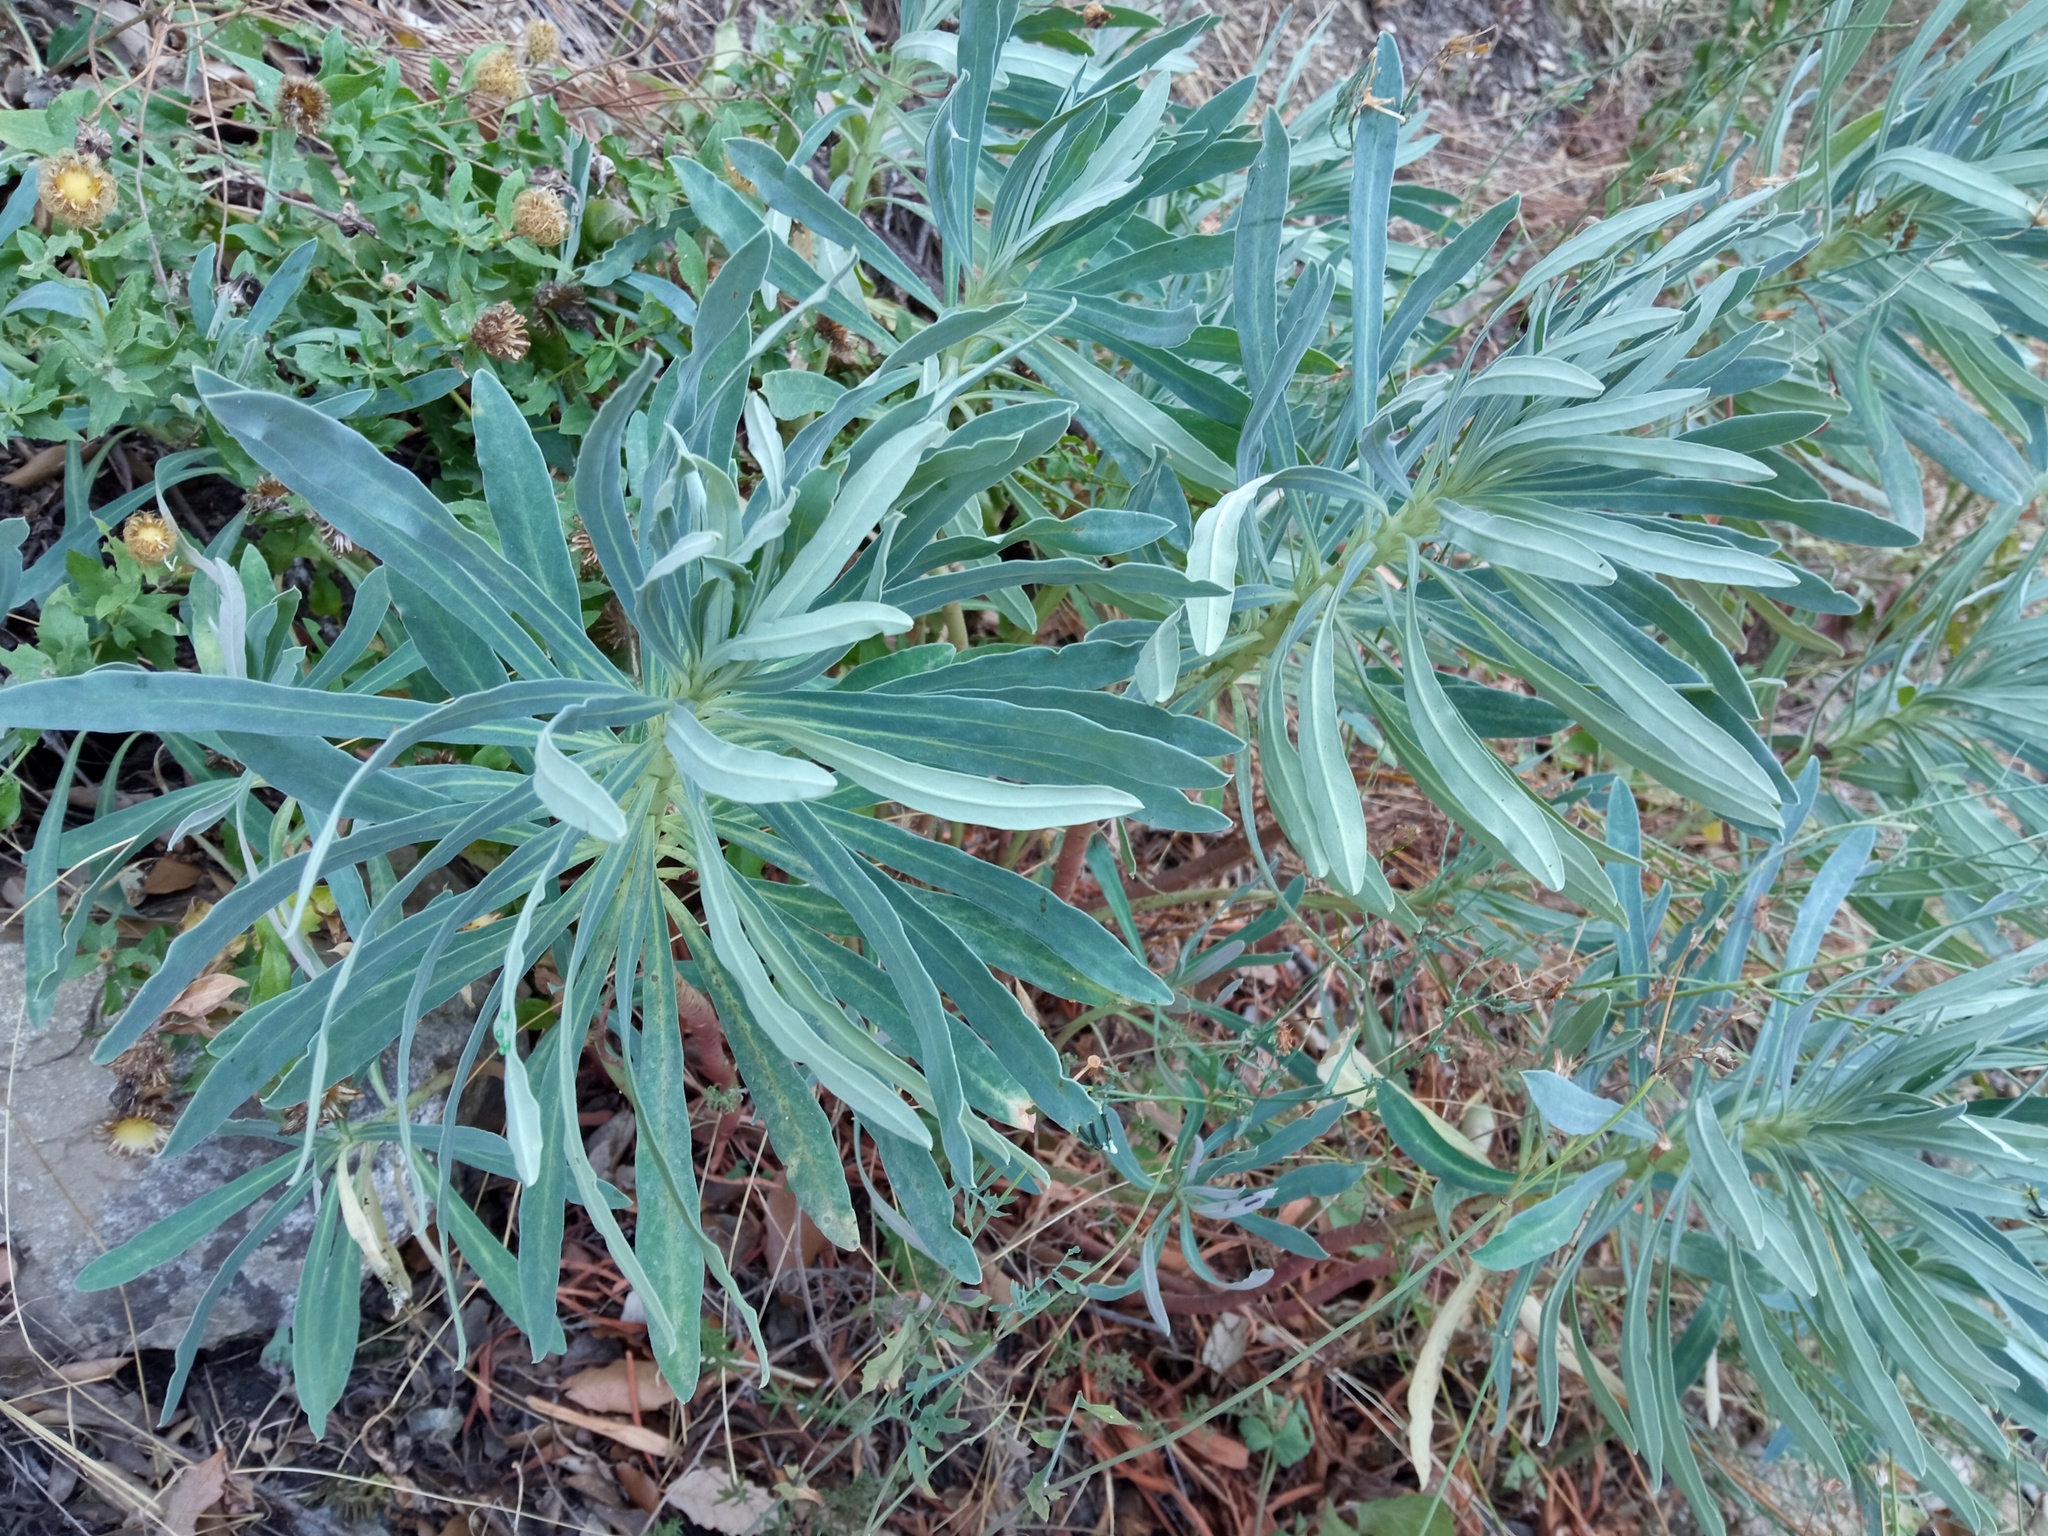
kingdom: Plantae
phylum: Tracheophyta
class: Magnoliopsida
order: Malpighiales
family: Euphorbiaceae
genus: Euphorbia
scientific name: Euphorbia characias
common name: Mediterranean spurge
